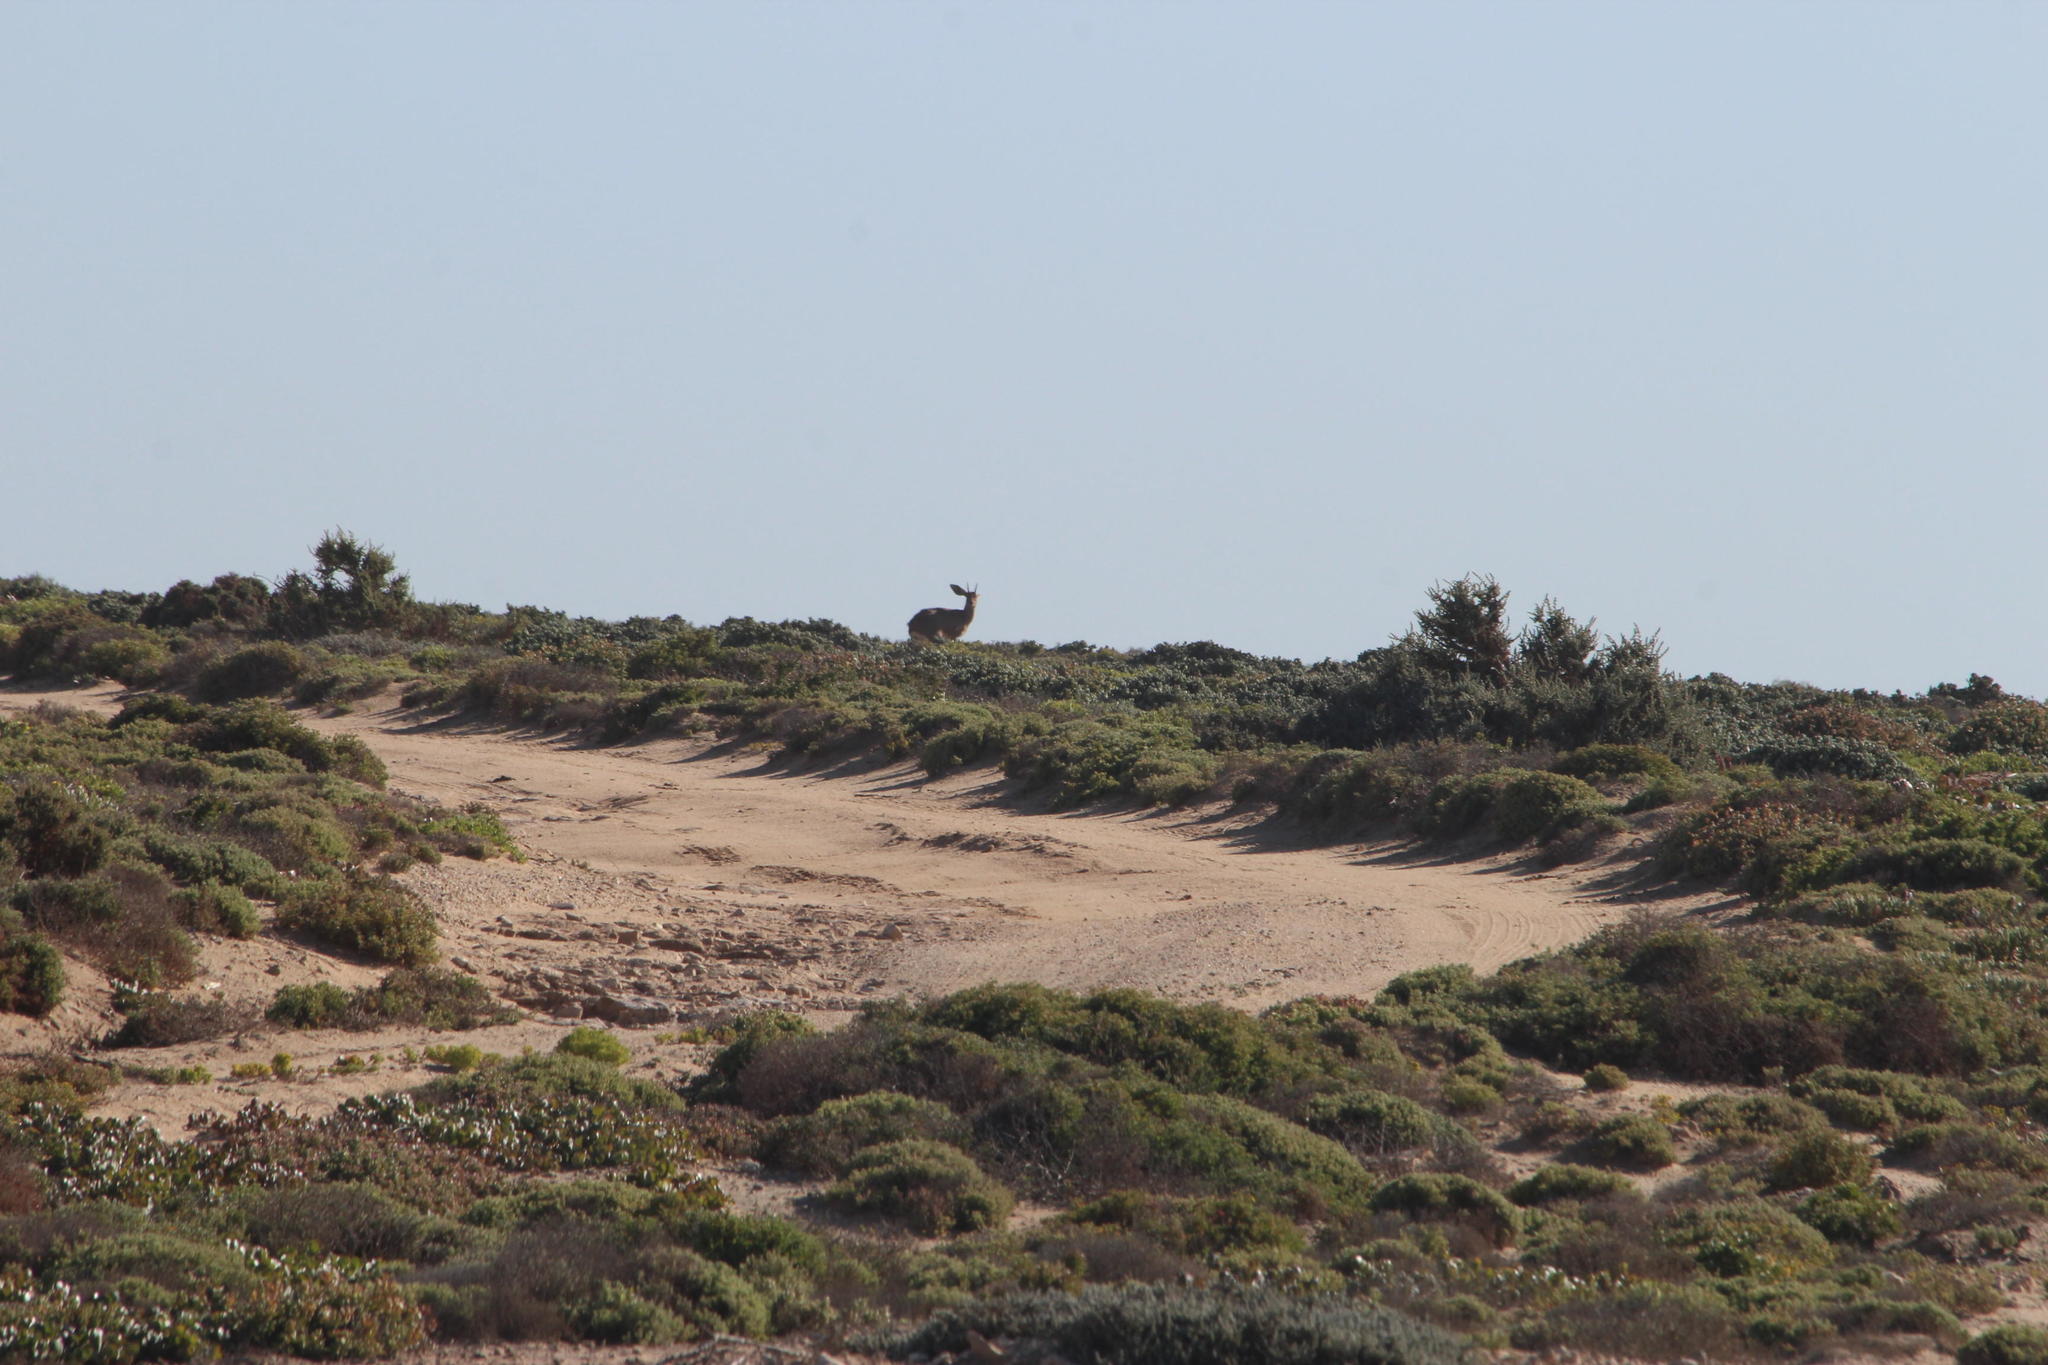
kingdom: Animalia
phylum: Chordata
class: Mammalia
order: Artiodactyla
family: Bovidae
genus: Raphicerus
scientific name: Raphicerus campestris
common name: Steenbok
